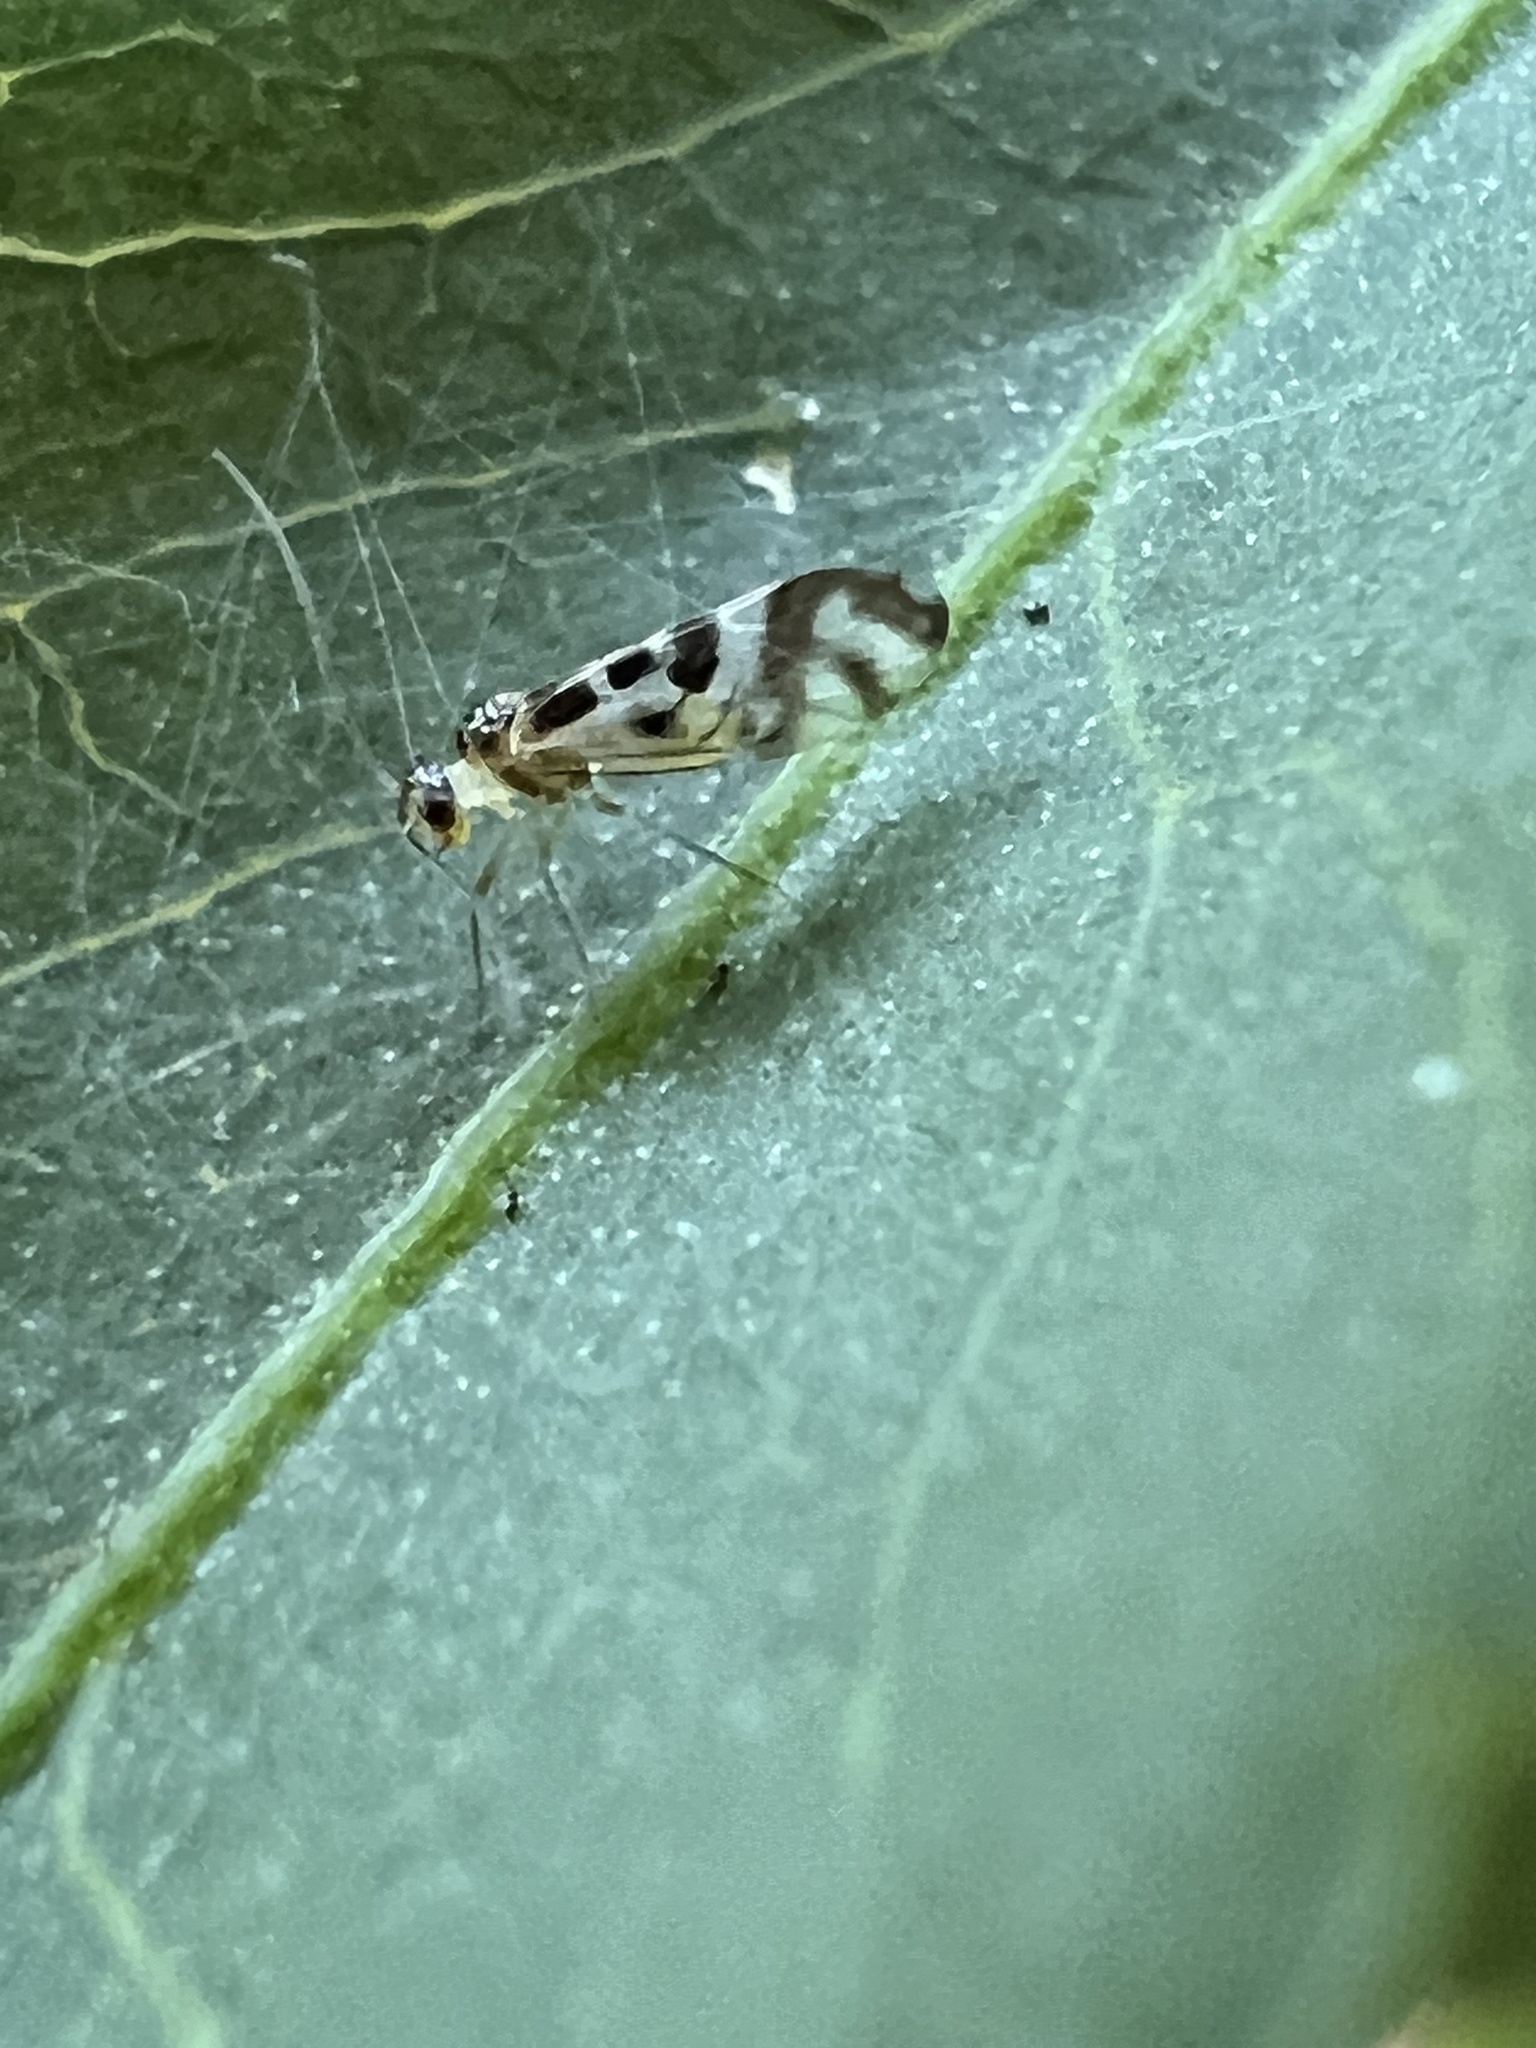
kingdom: Animalia
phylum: Arthropoda
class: Insecta
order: Psocodea
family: Stenopsocidae
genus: Graphopsocus
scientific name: Graphopsocus cruciatus
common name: Lizard bark louse
